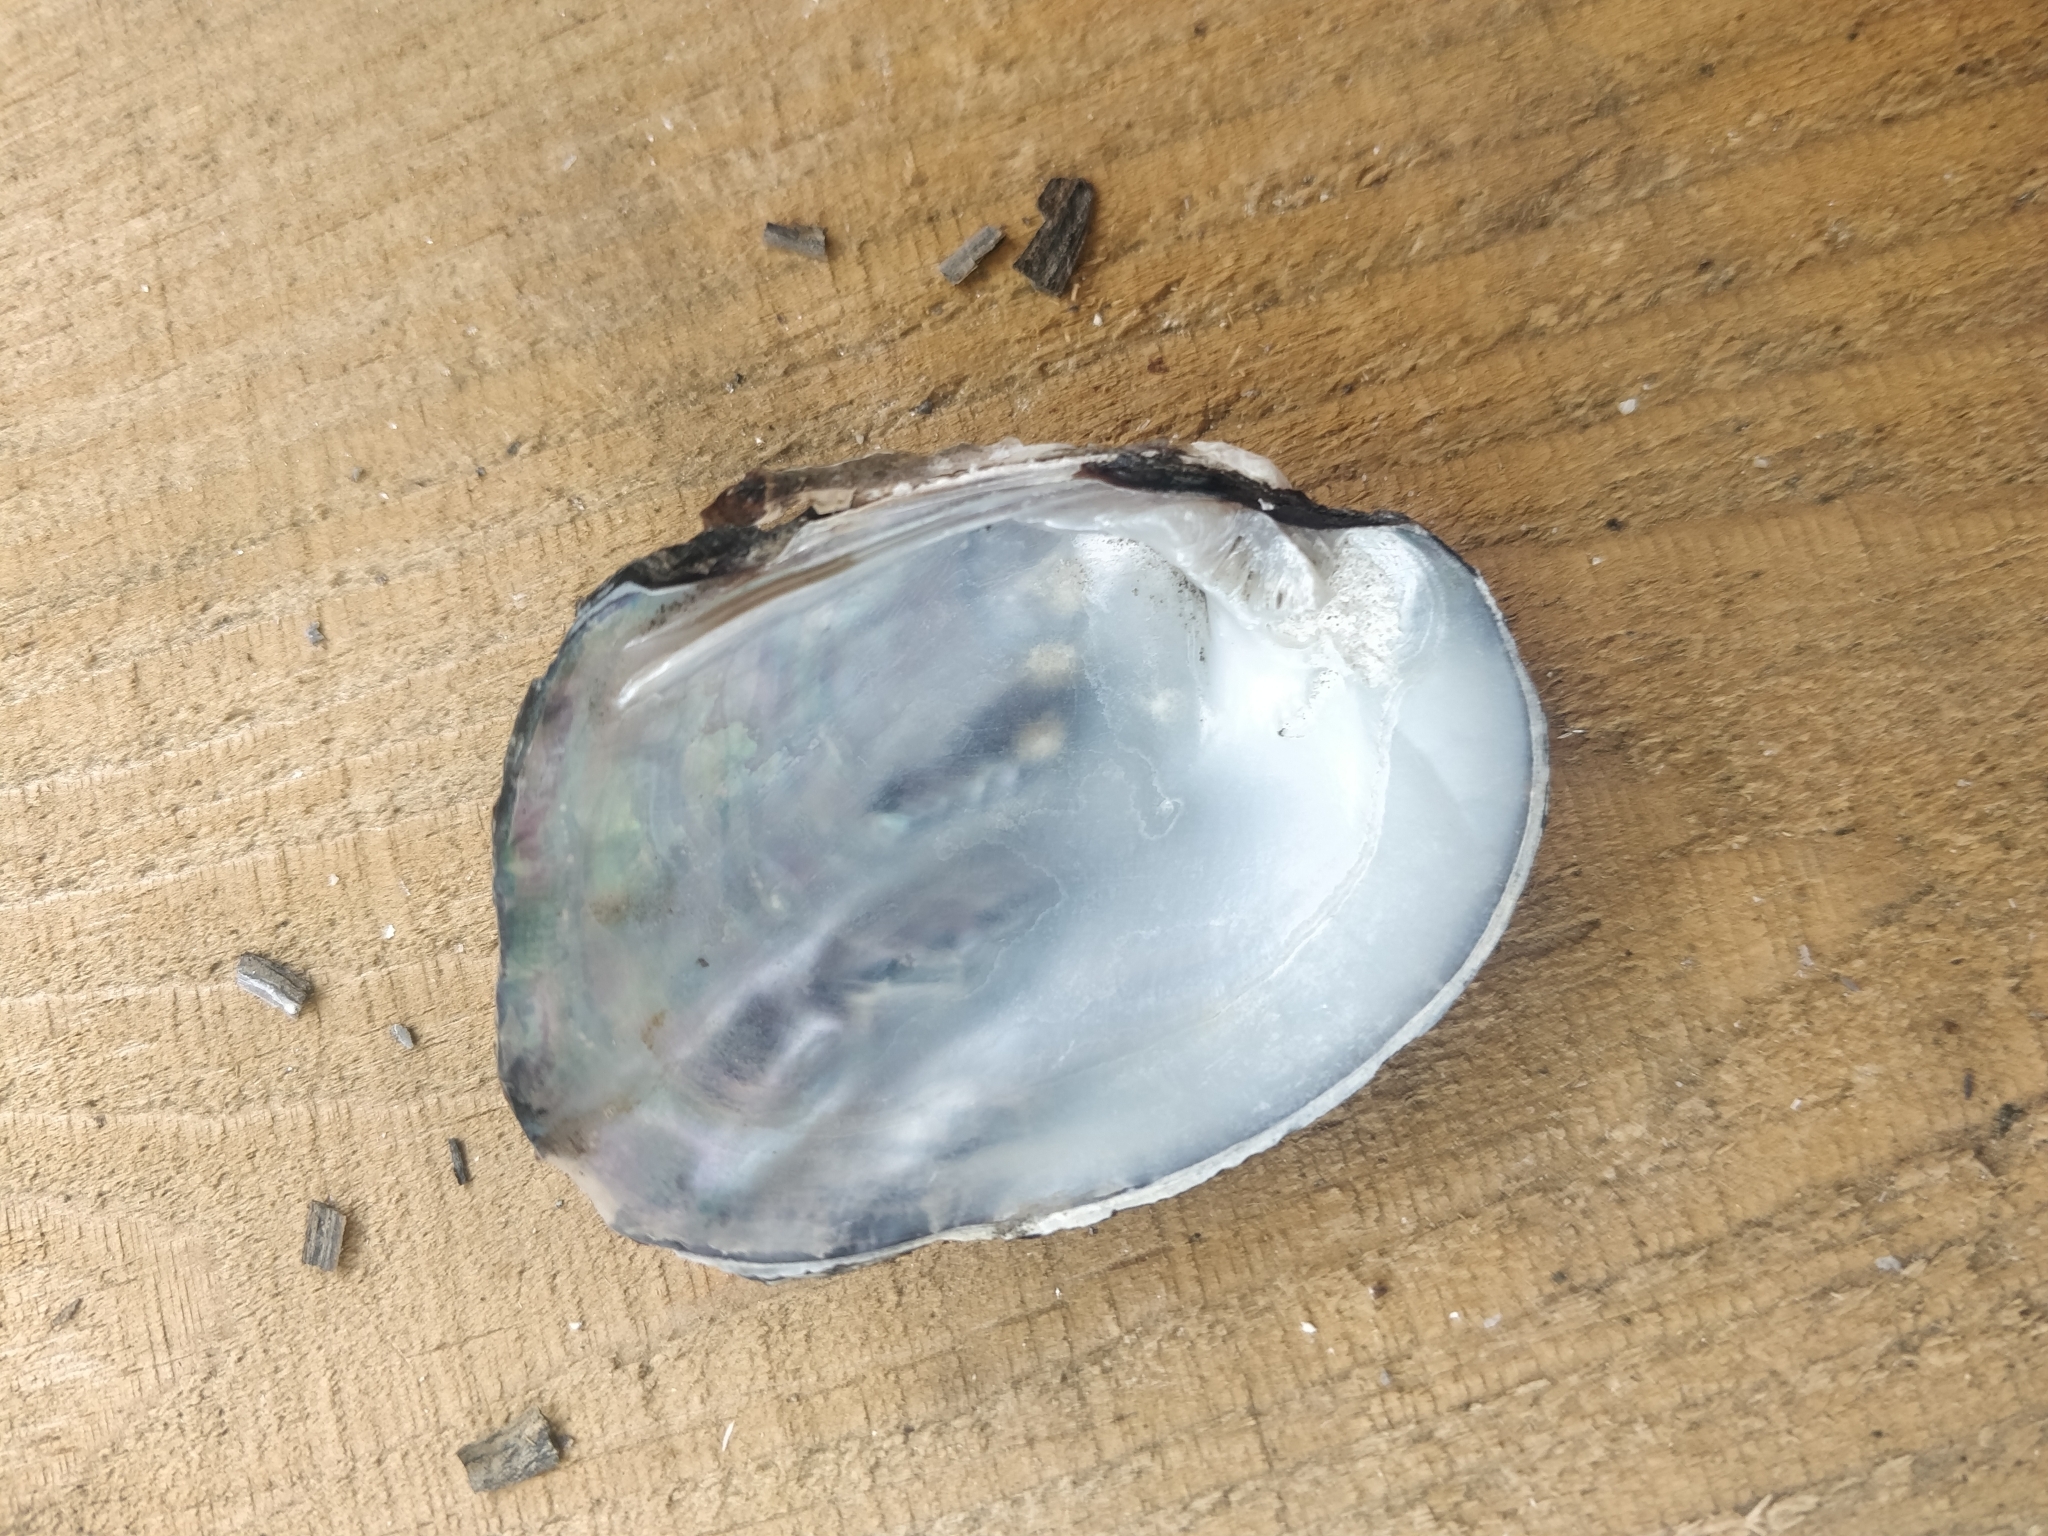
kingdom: Animalia
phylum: Mollusca
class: Bivalvia
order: Unionida
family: Unionidae
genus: Amblema
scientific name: Amblema plicata
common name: Threeridge
